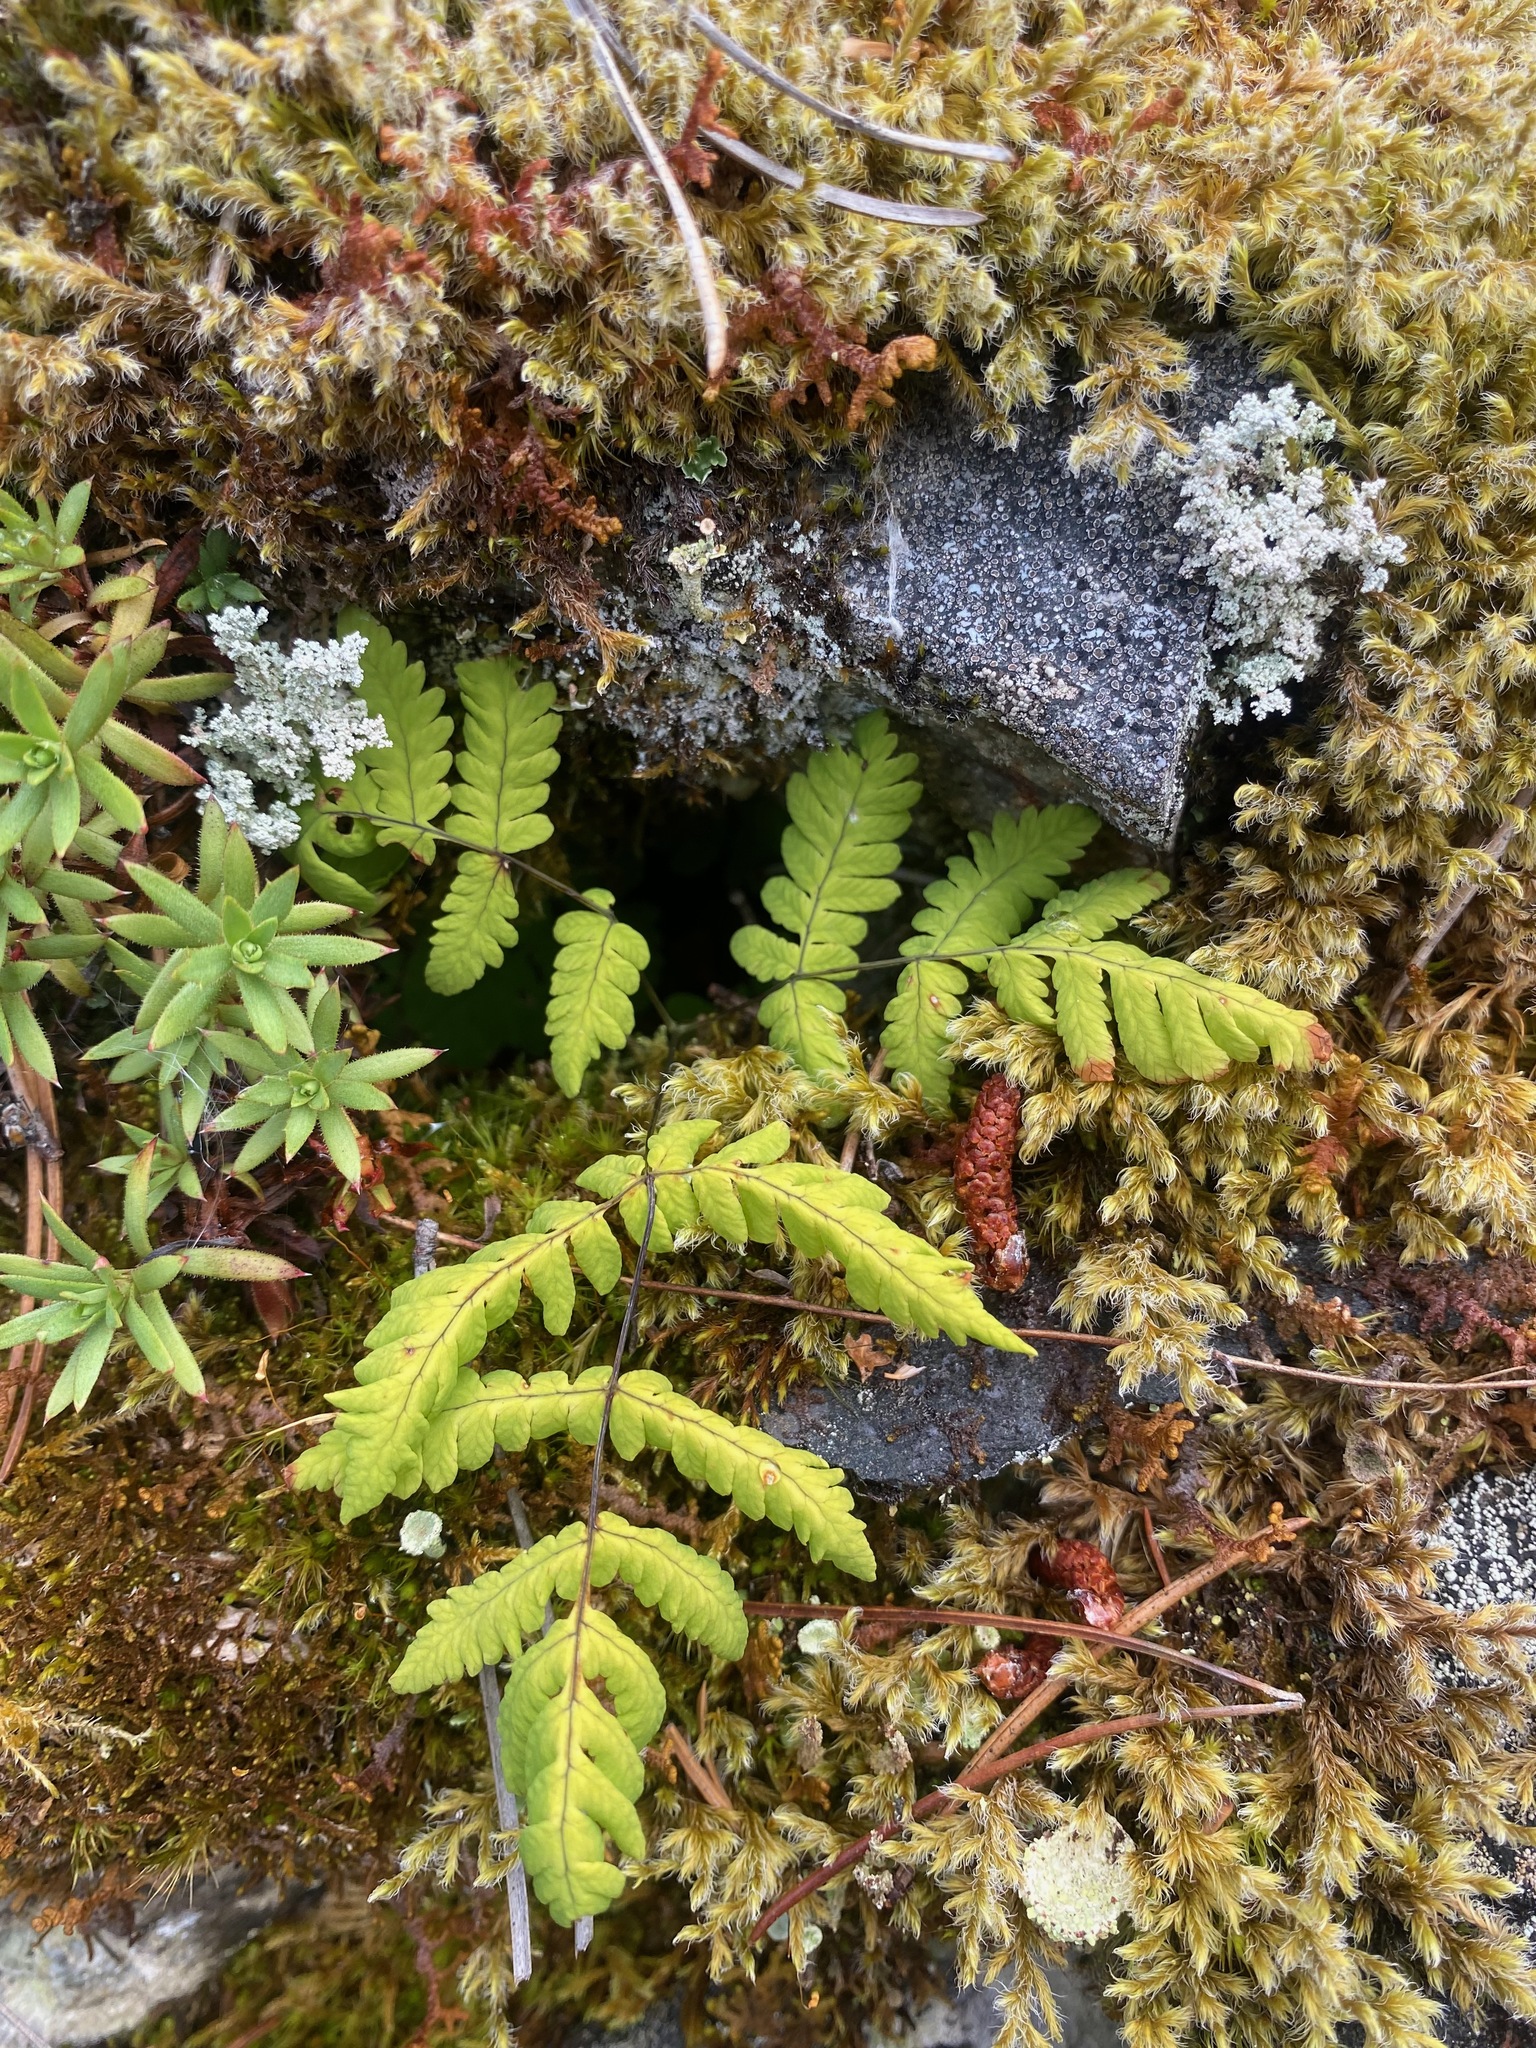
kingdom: Plantae
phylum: Tracheophyta
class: Polypodiopsida
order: Polypodiales
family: Cystopteridaceae
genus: Gymnocarpium
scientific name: Gymnocarpium dryopteris
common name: Oak fern
